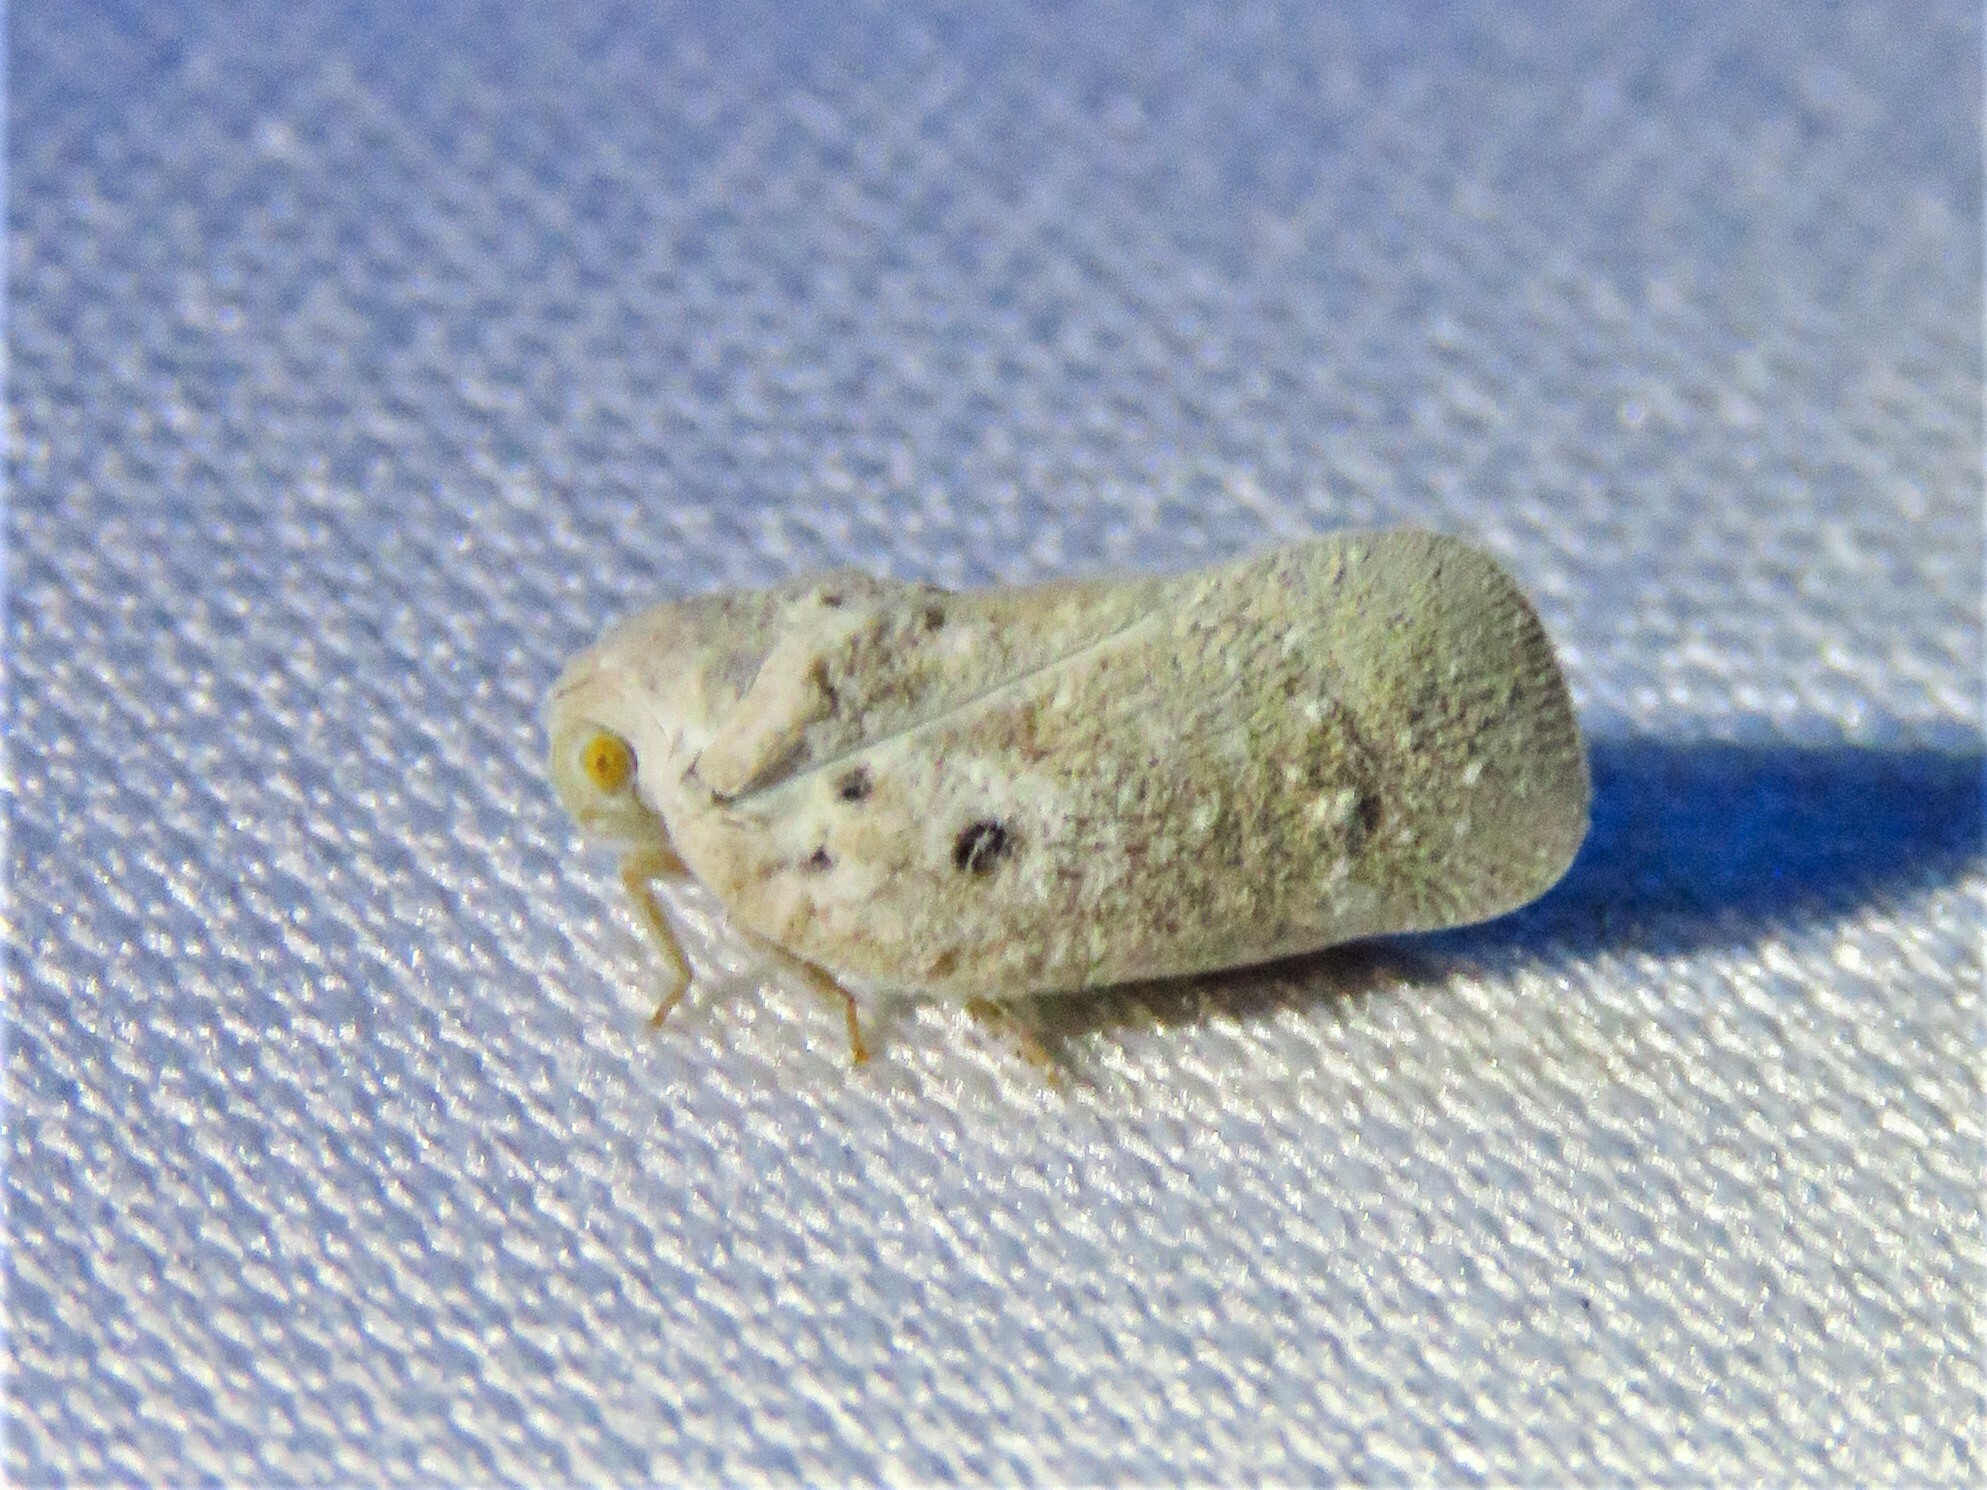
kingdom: Animalia
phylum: Arthropoda
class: Insecta
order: Hemiptera
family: Flatidae
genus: Metcalfa
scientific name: Metcalfa pruinosa
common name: Citrus flatid planthopper
